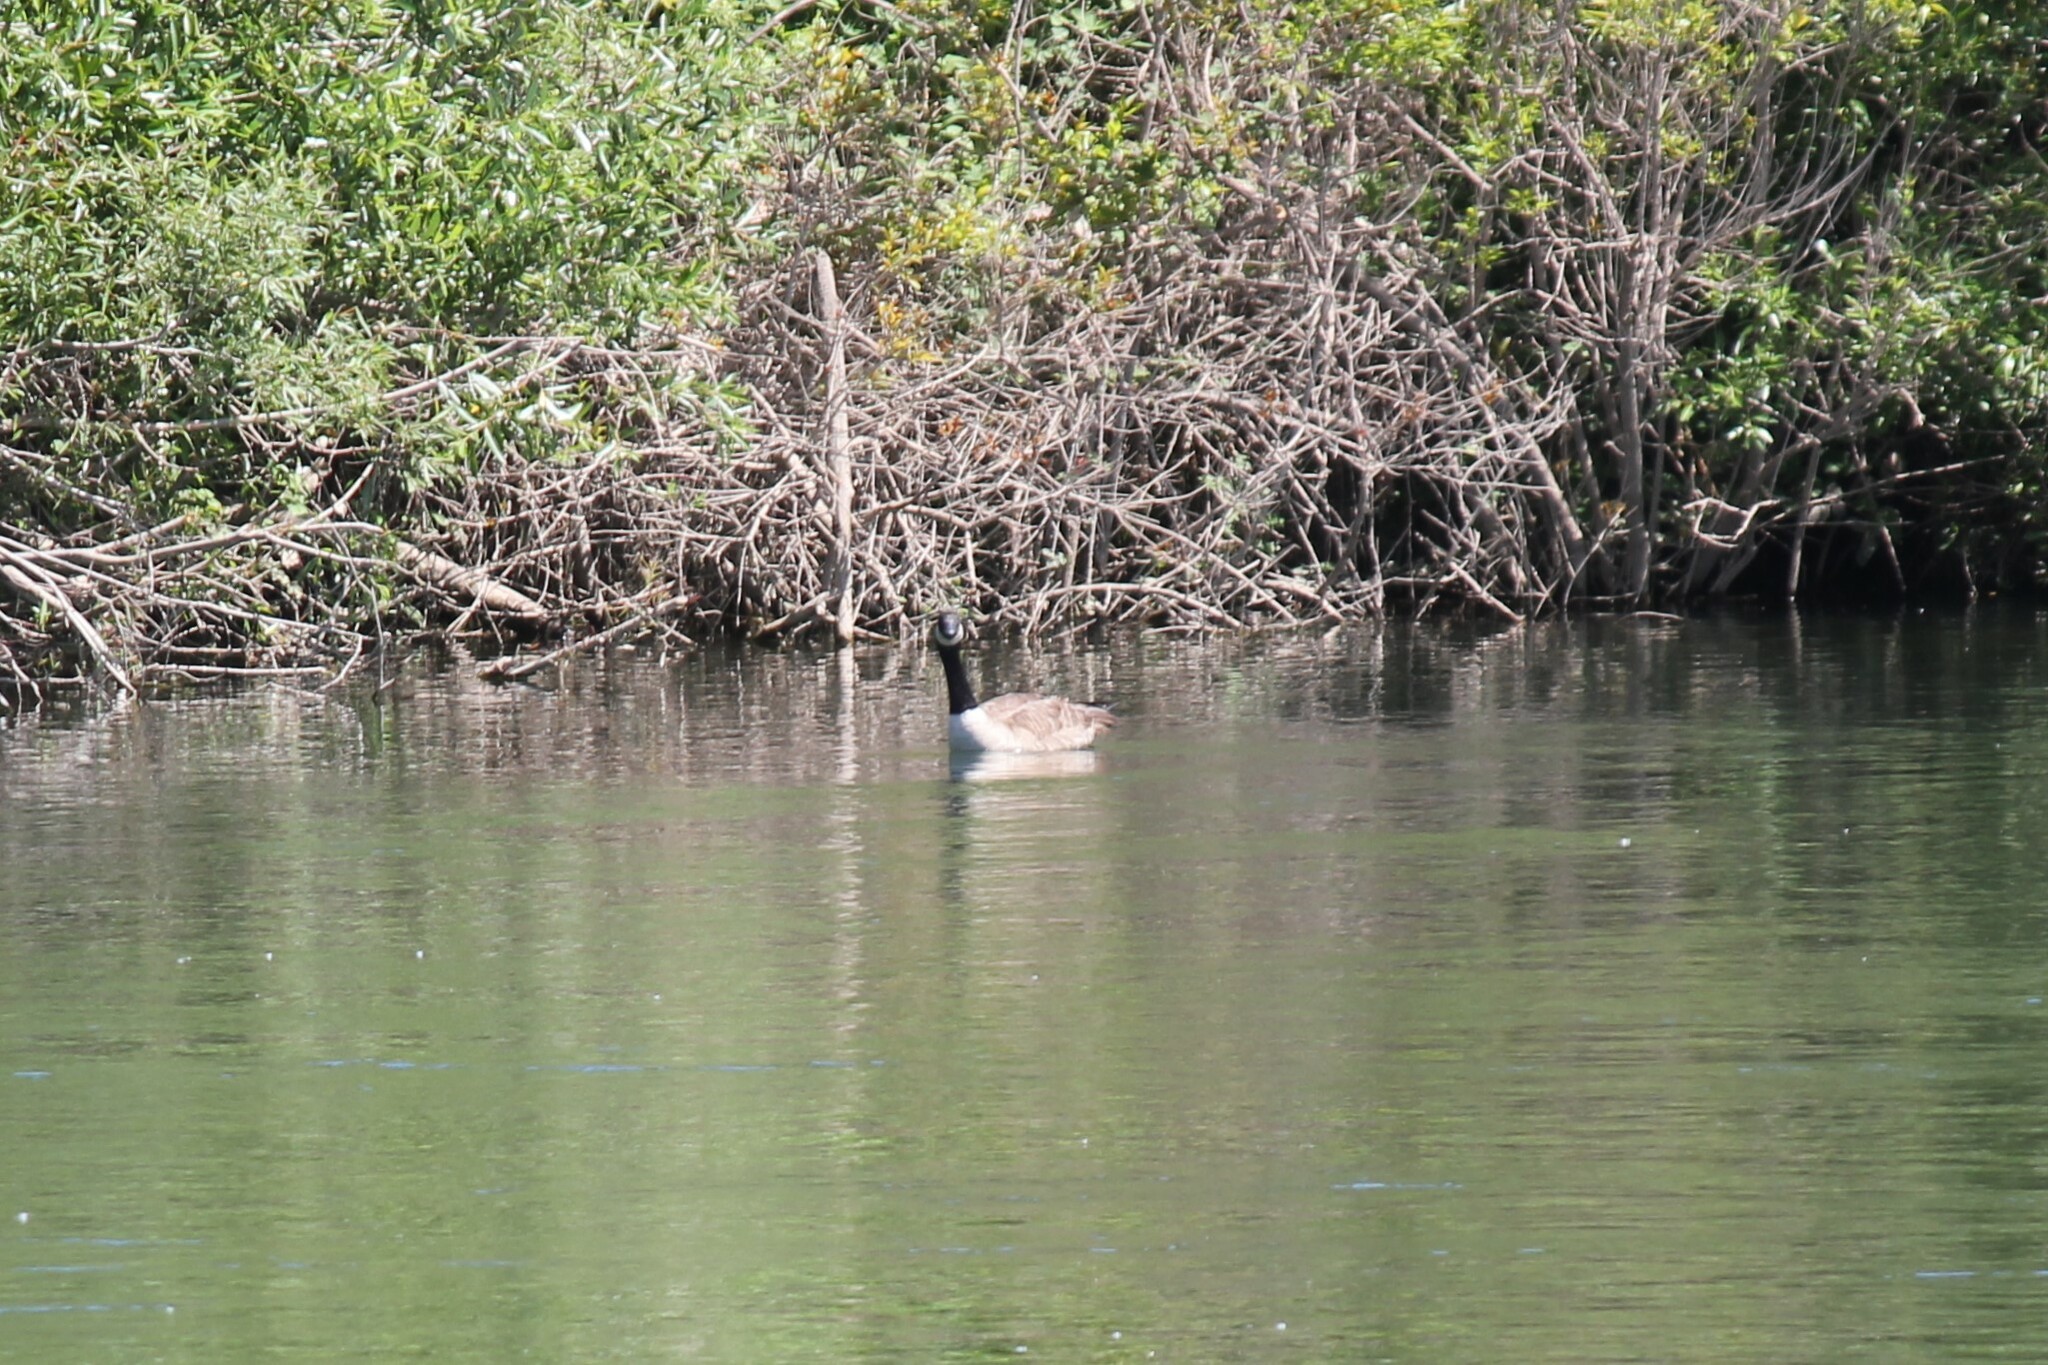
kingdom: Animalia
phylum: Chordata
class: Aves
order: Anseriformes
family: Anatidae
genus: Branta
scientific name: Branta canadensis
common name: Canada goose
